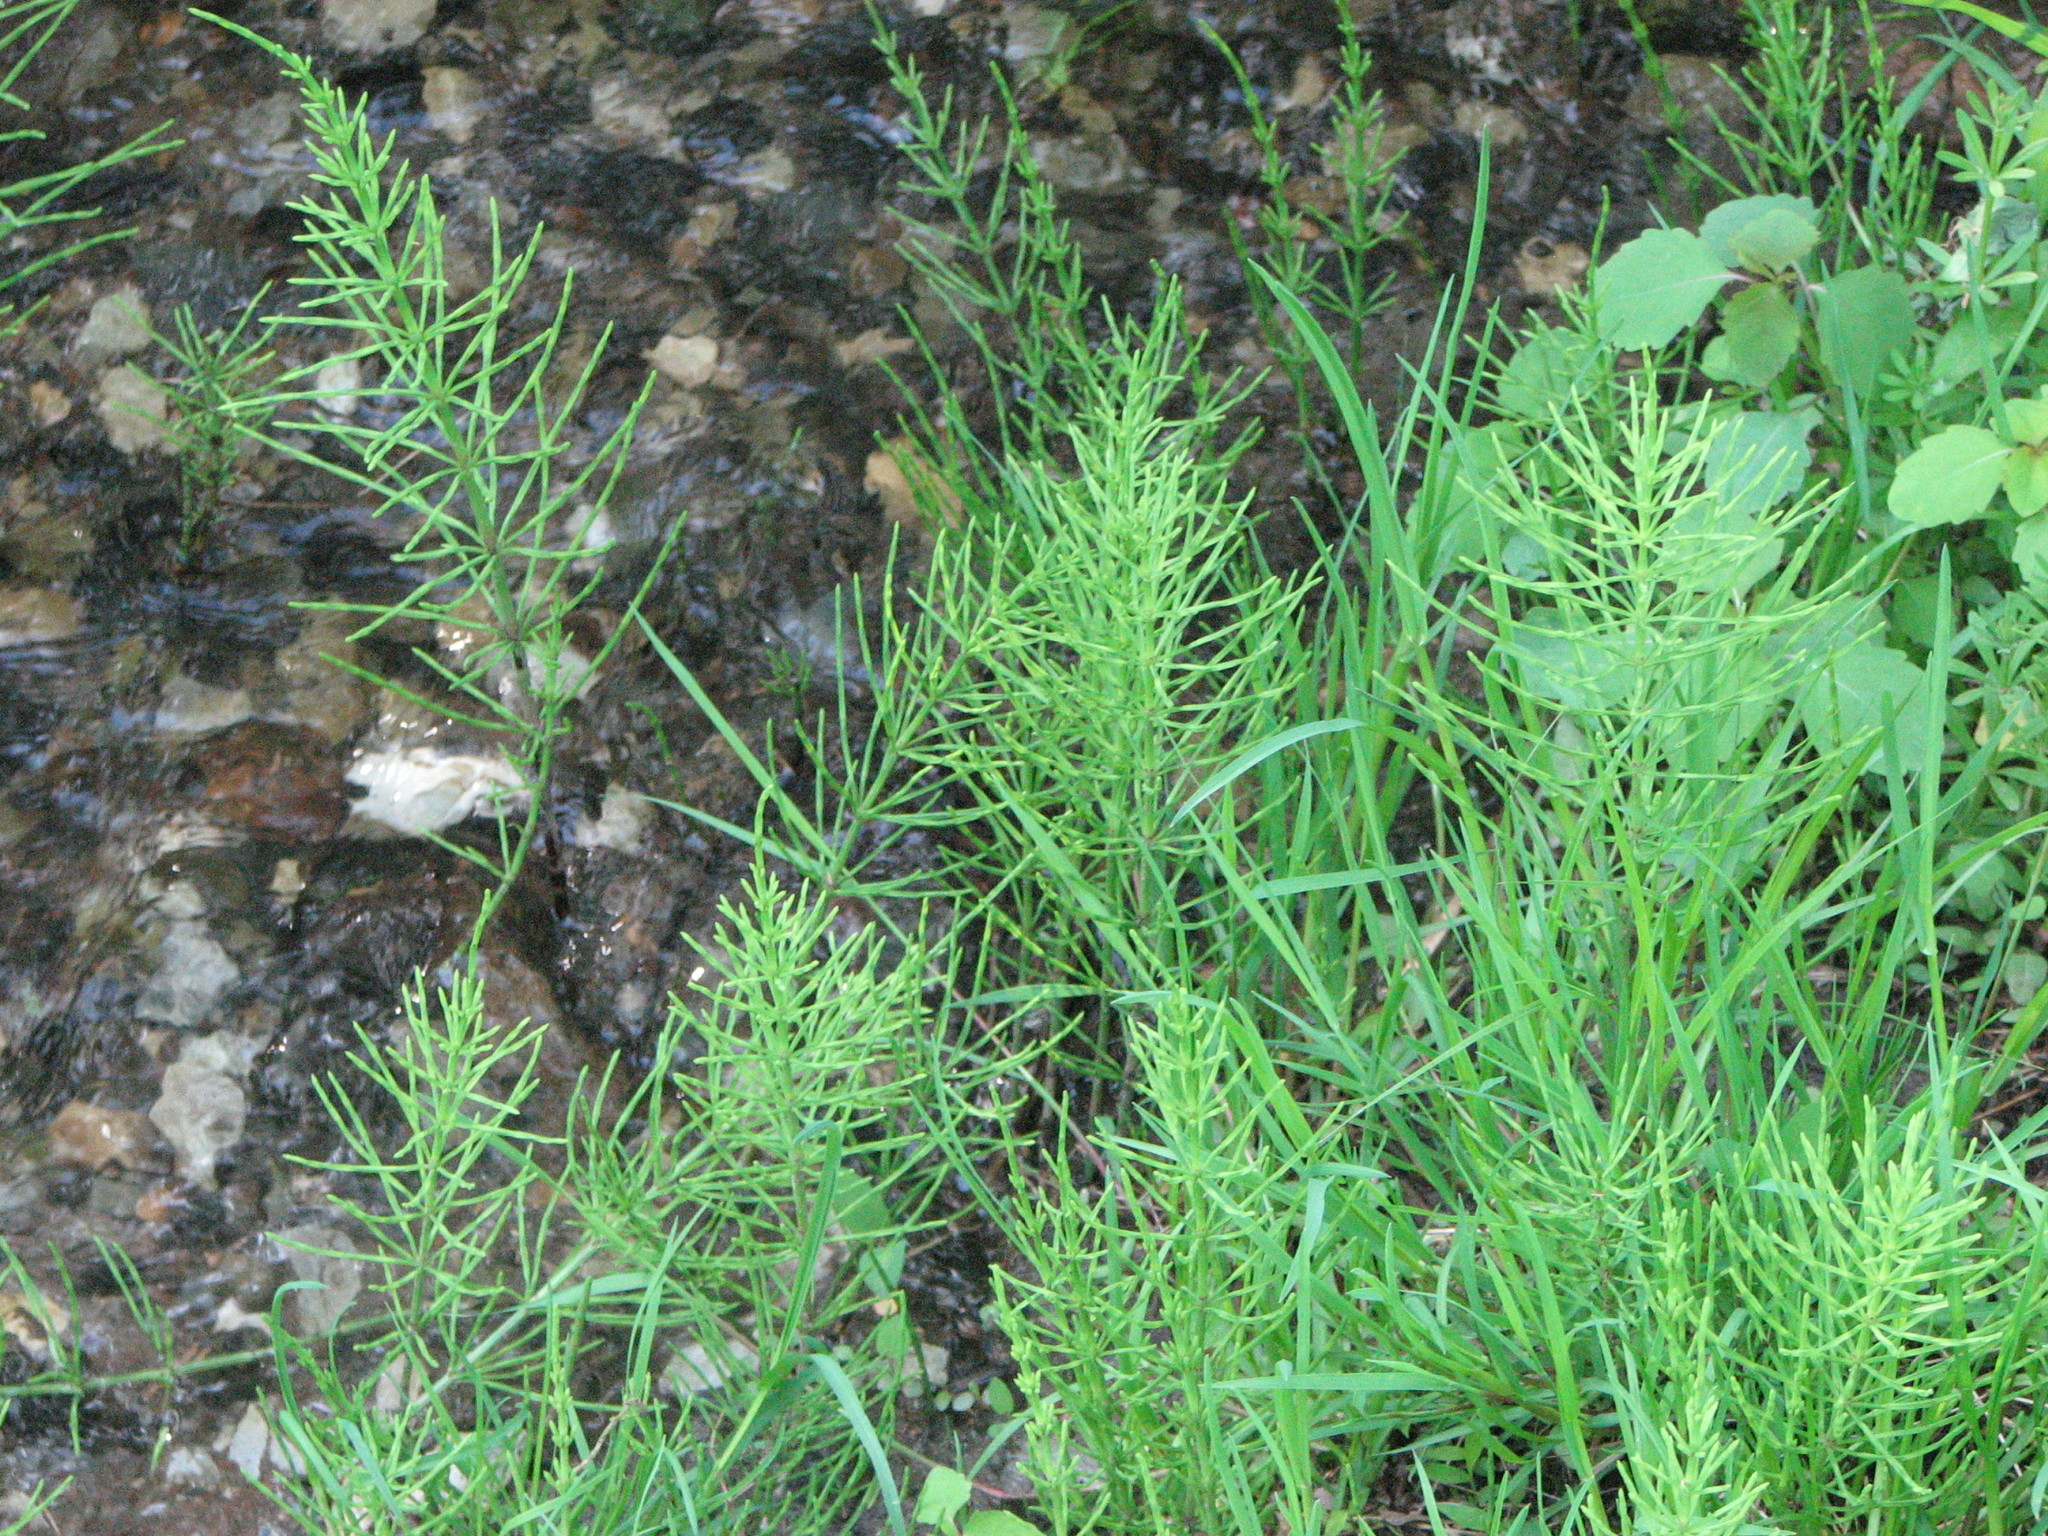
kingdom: Plantae
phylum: Tracheophyta
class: Polypodiopsida
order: Equisetales
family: Equisetaceae
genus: Equisetum
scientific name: Equisetum arvense
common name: Field horsetail
